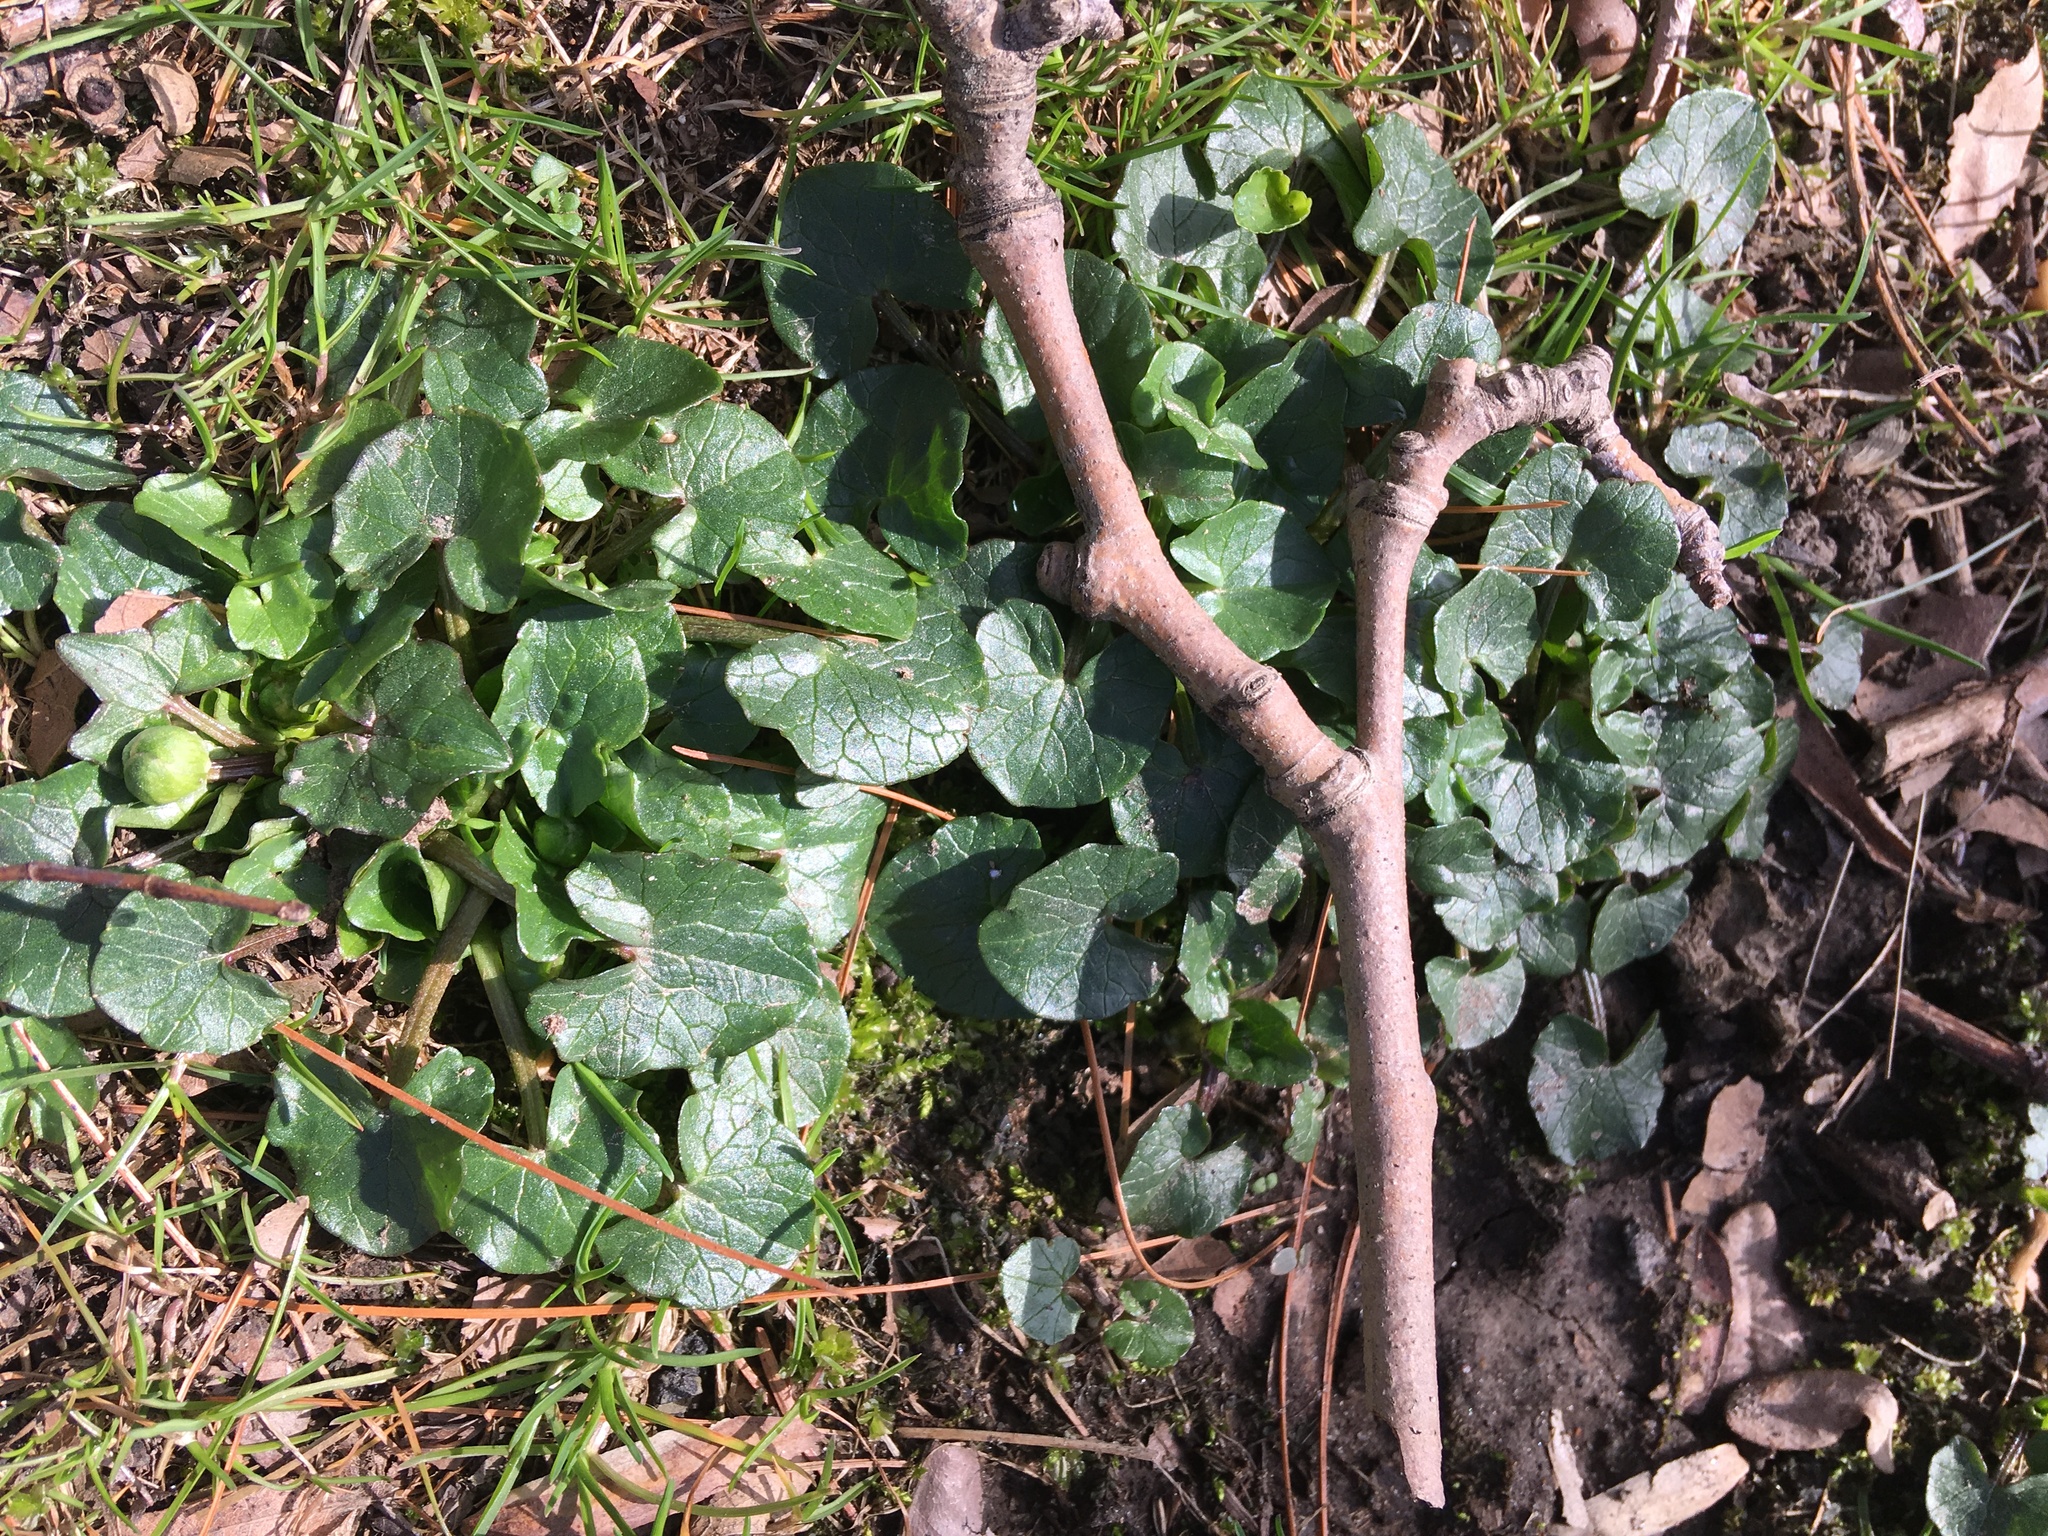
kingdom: Plantae
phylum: Tracheophyta
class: Magnoliopsida
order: Ranunculales
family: Ranunculaceae
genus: Ficaria
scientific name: Ficaria verna
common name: Lesser celandine
